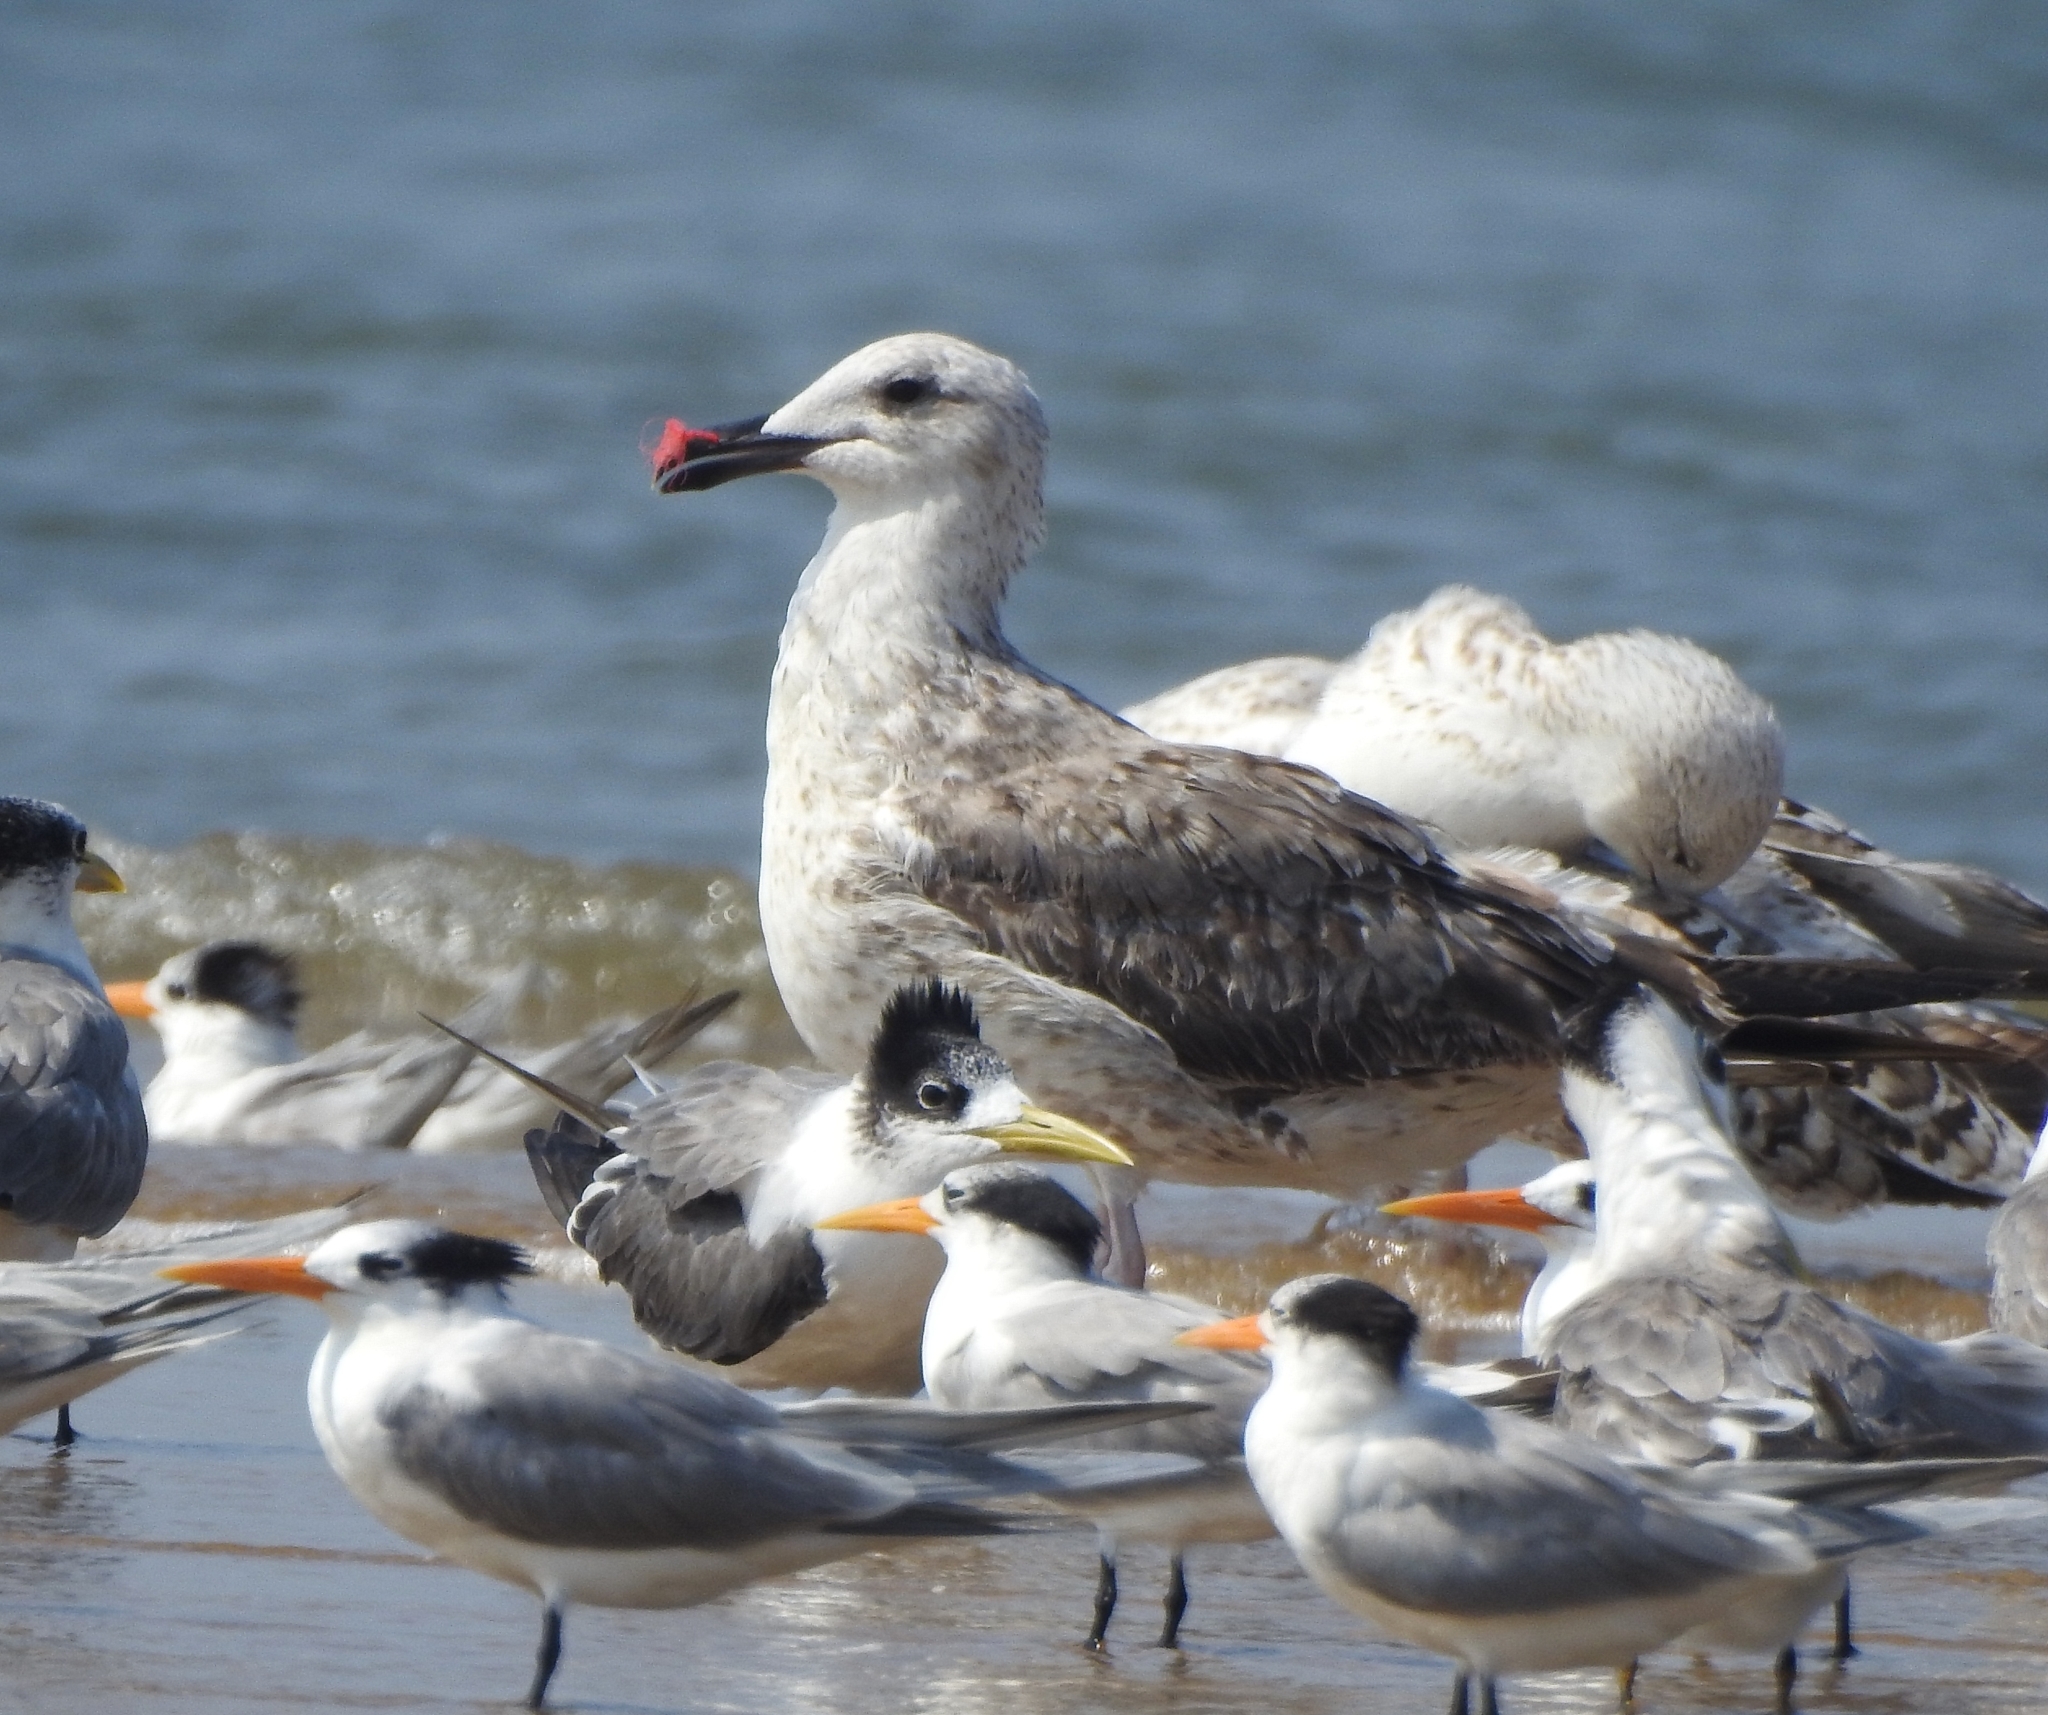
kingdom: Animalia
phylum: Chordata
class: Aves
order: Charadriiformes
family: Laridae
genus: Thalasseus
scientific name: Thalasseus bergii
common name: Greater crested tern
